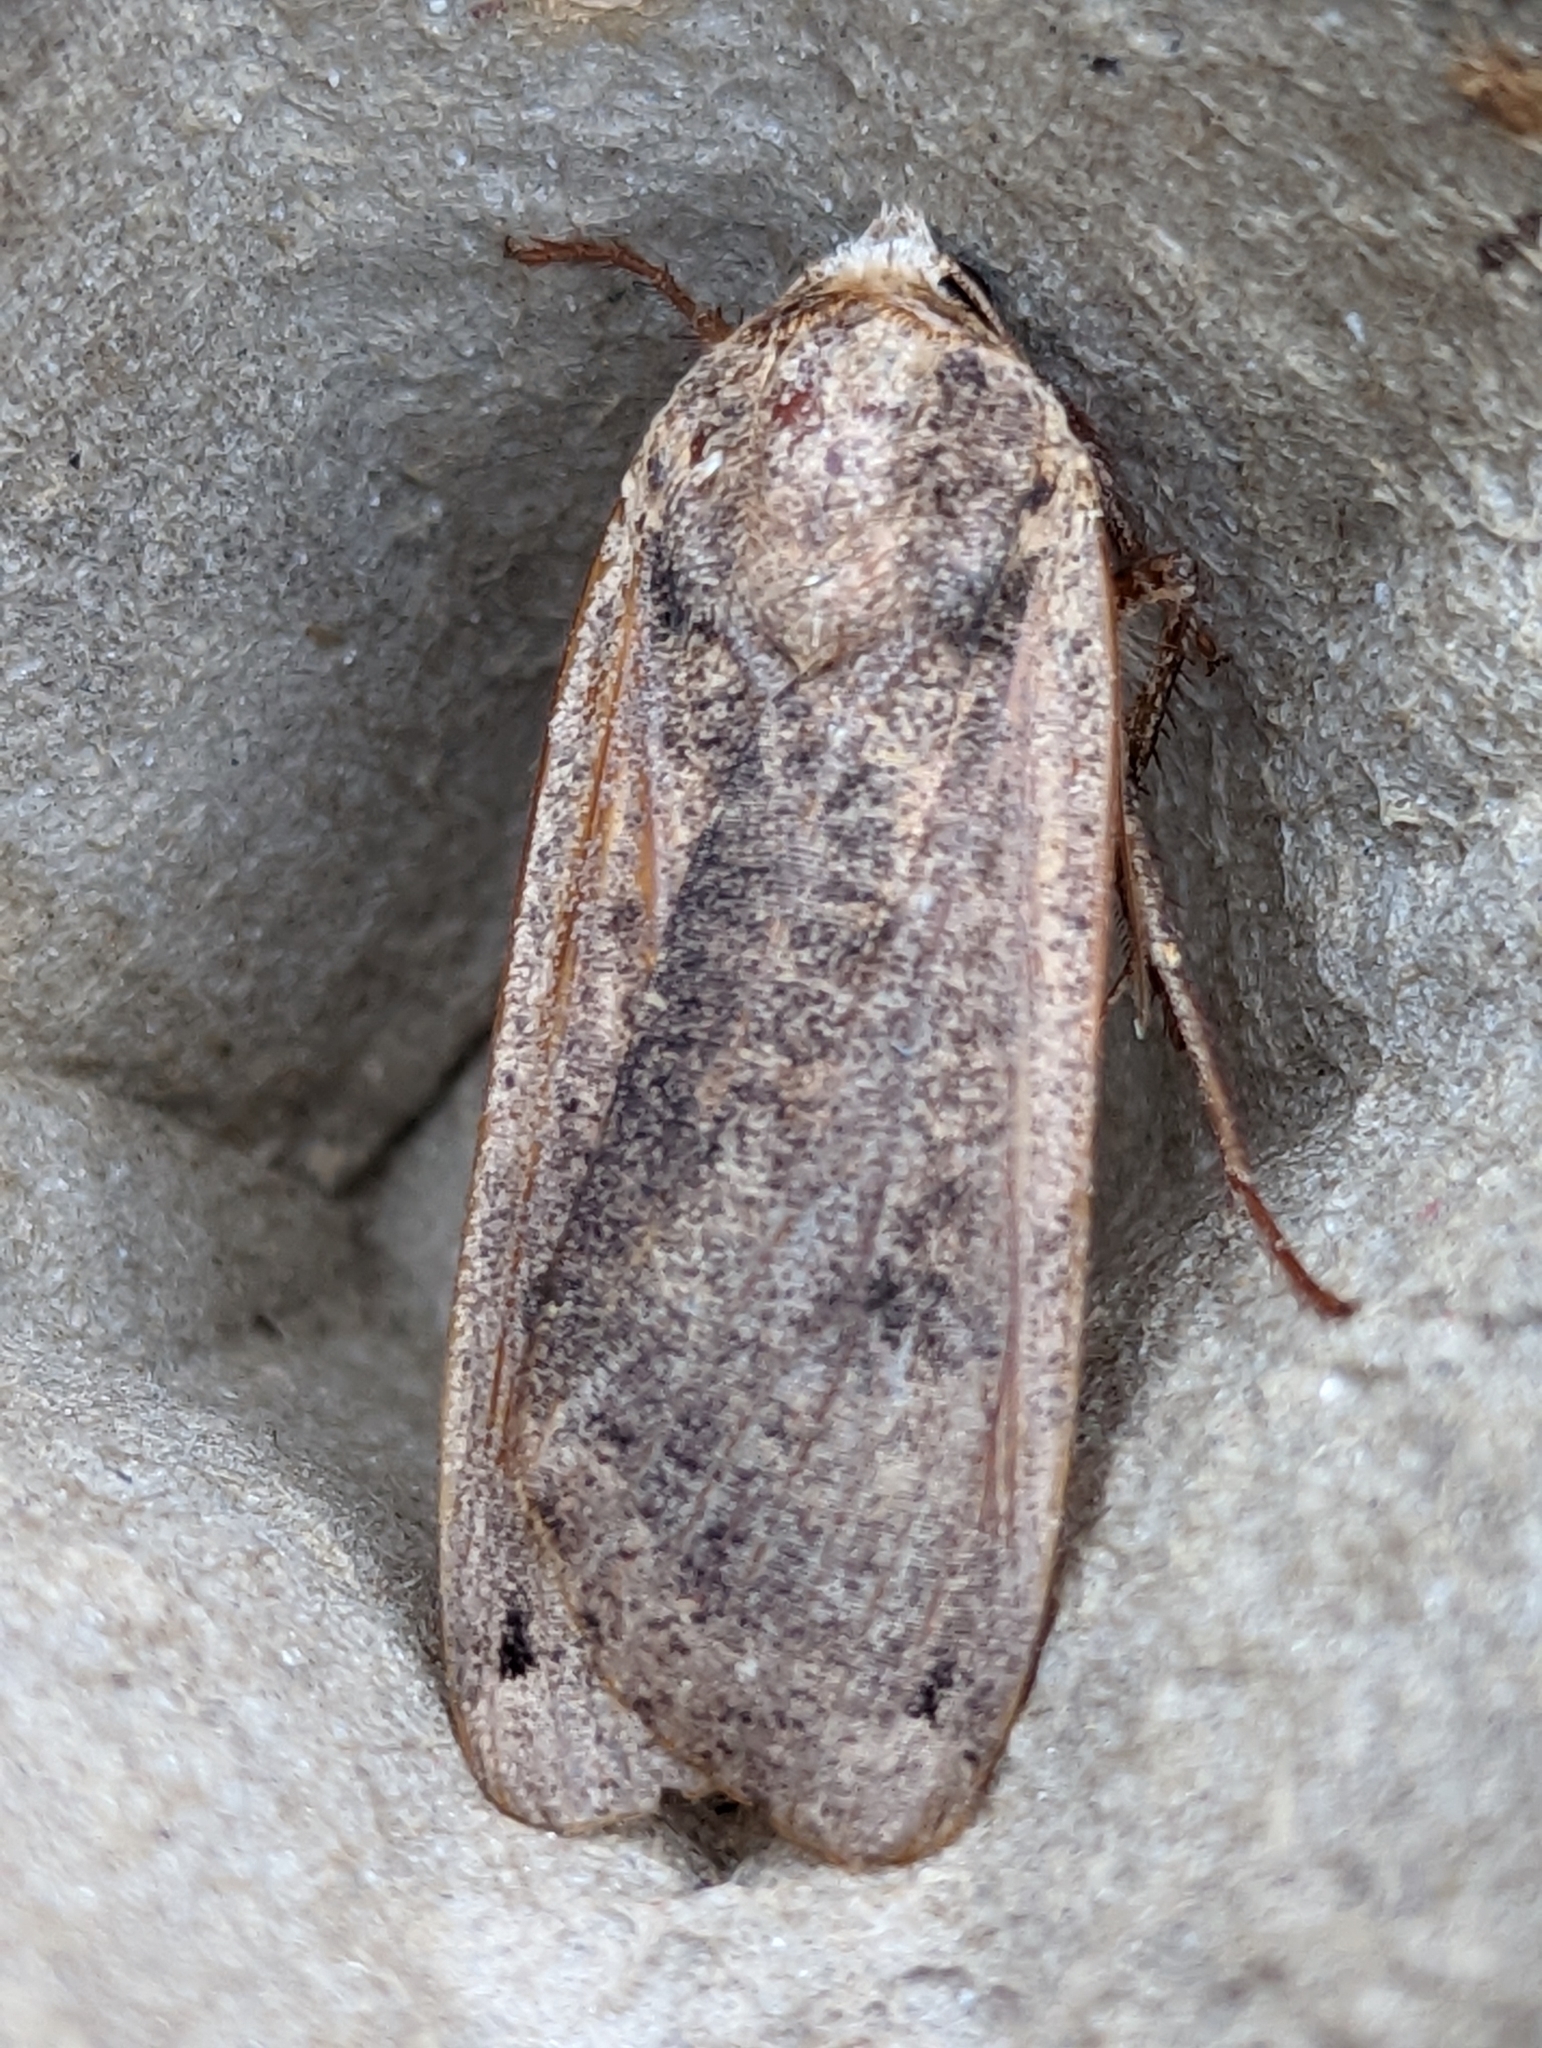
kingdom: Animalia
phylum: Arthropoda
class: Insecta
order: Lepidoptera
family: Noctuidae
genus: Noctua
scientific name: Noctua pronuba
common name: Large yellow underwing
